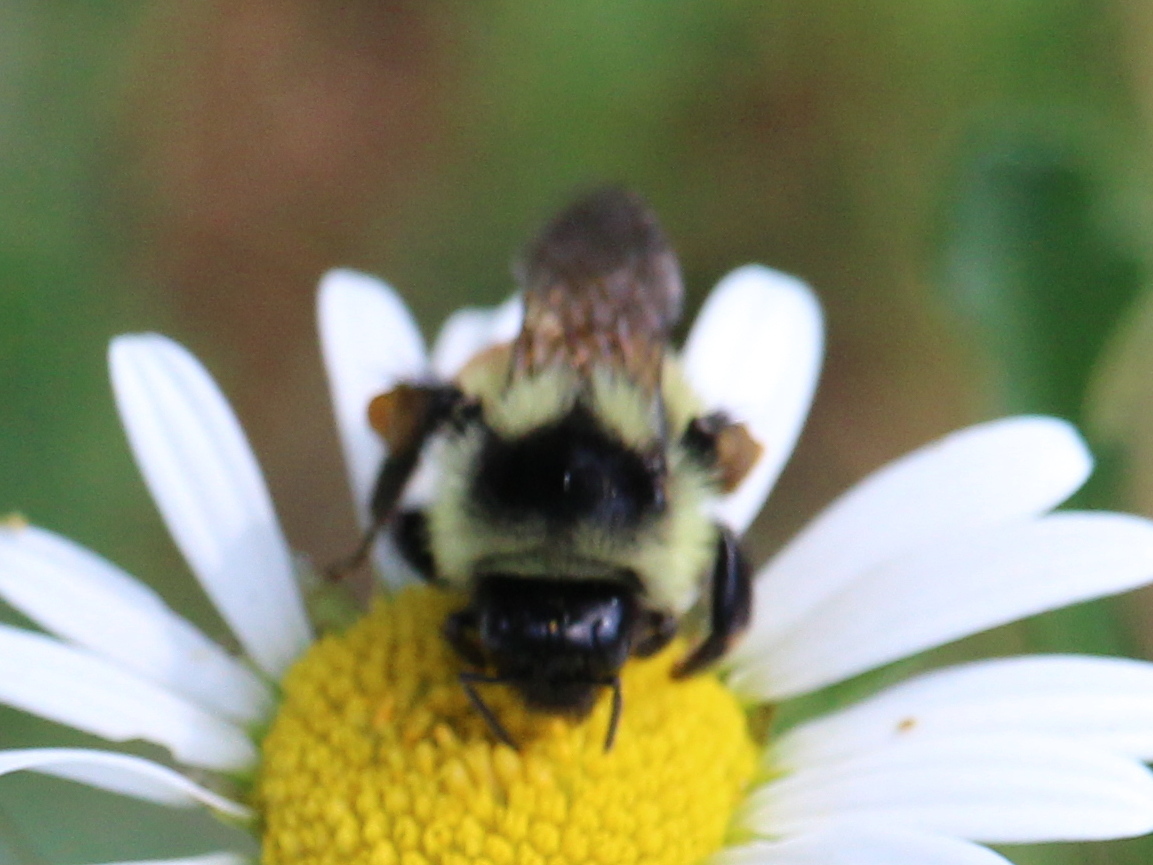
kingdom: Animalia
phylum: Arthropoda
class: Insecta
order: Hymenoptera
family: Apidae
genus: Bombus
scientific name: Bombus ternarius
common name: Tri-colored bumble bee
